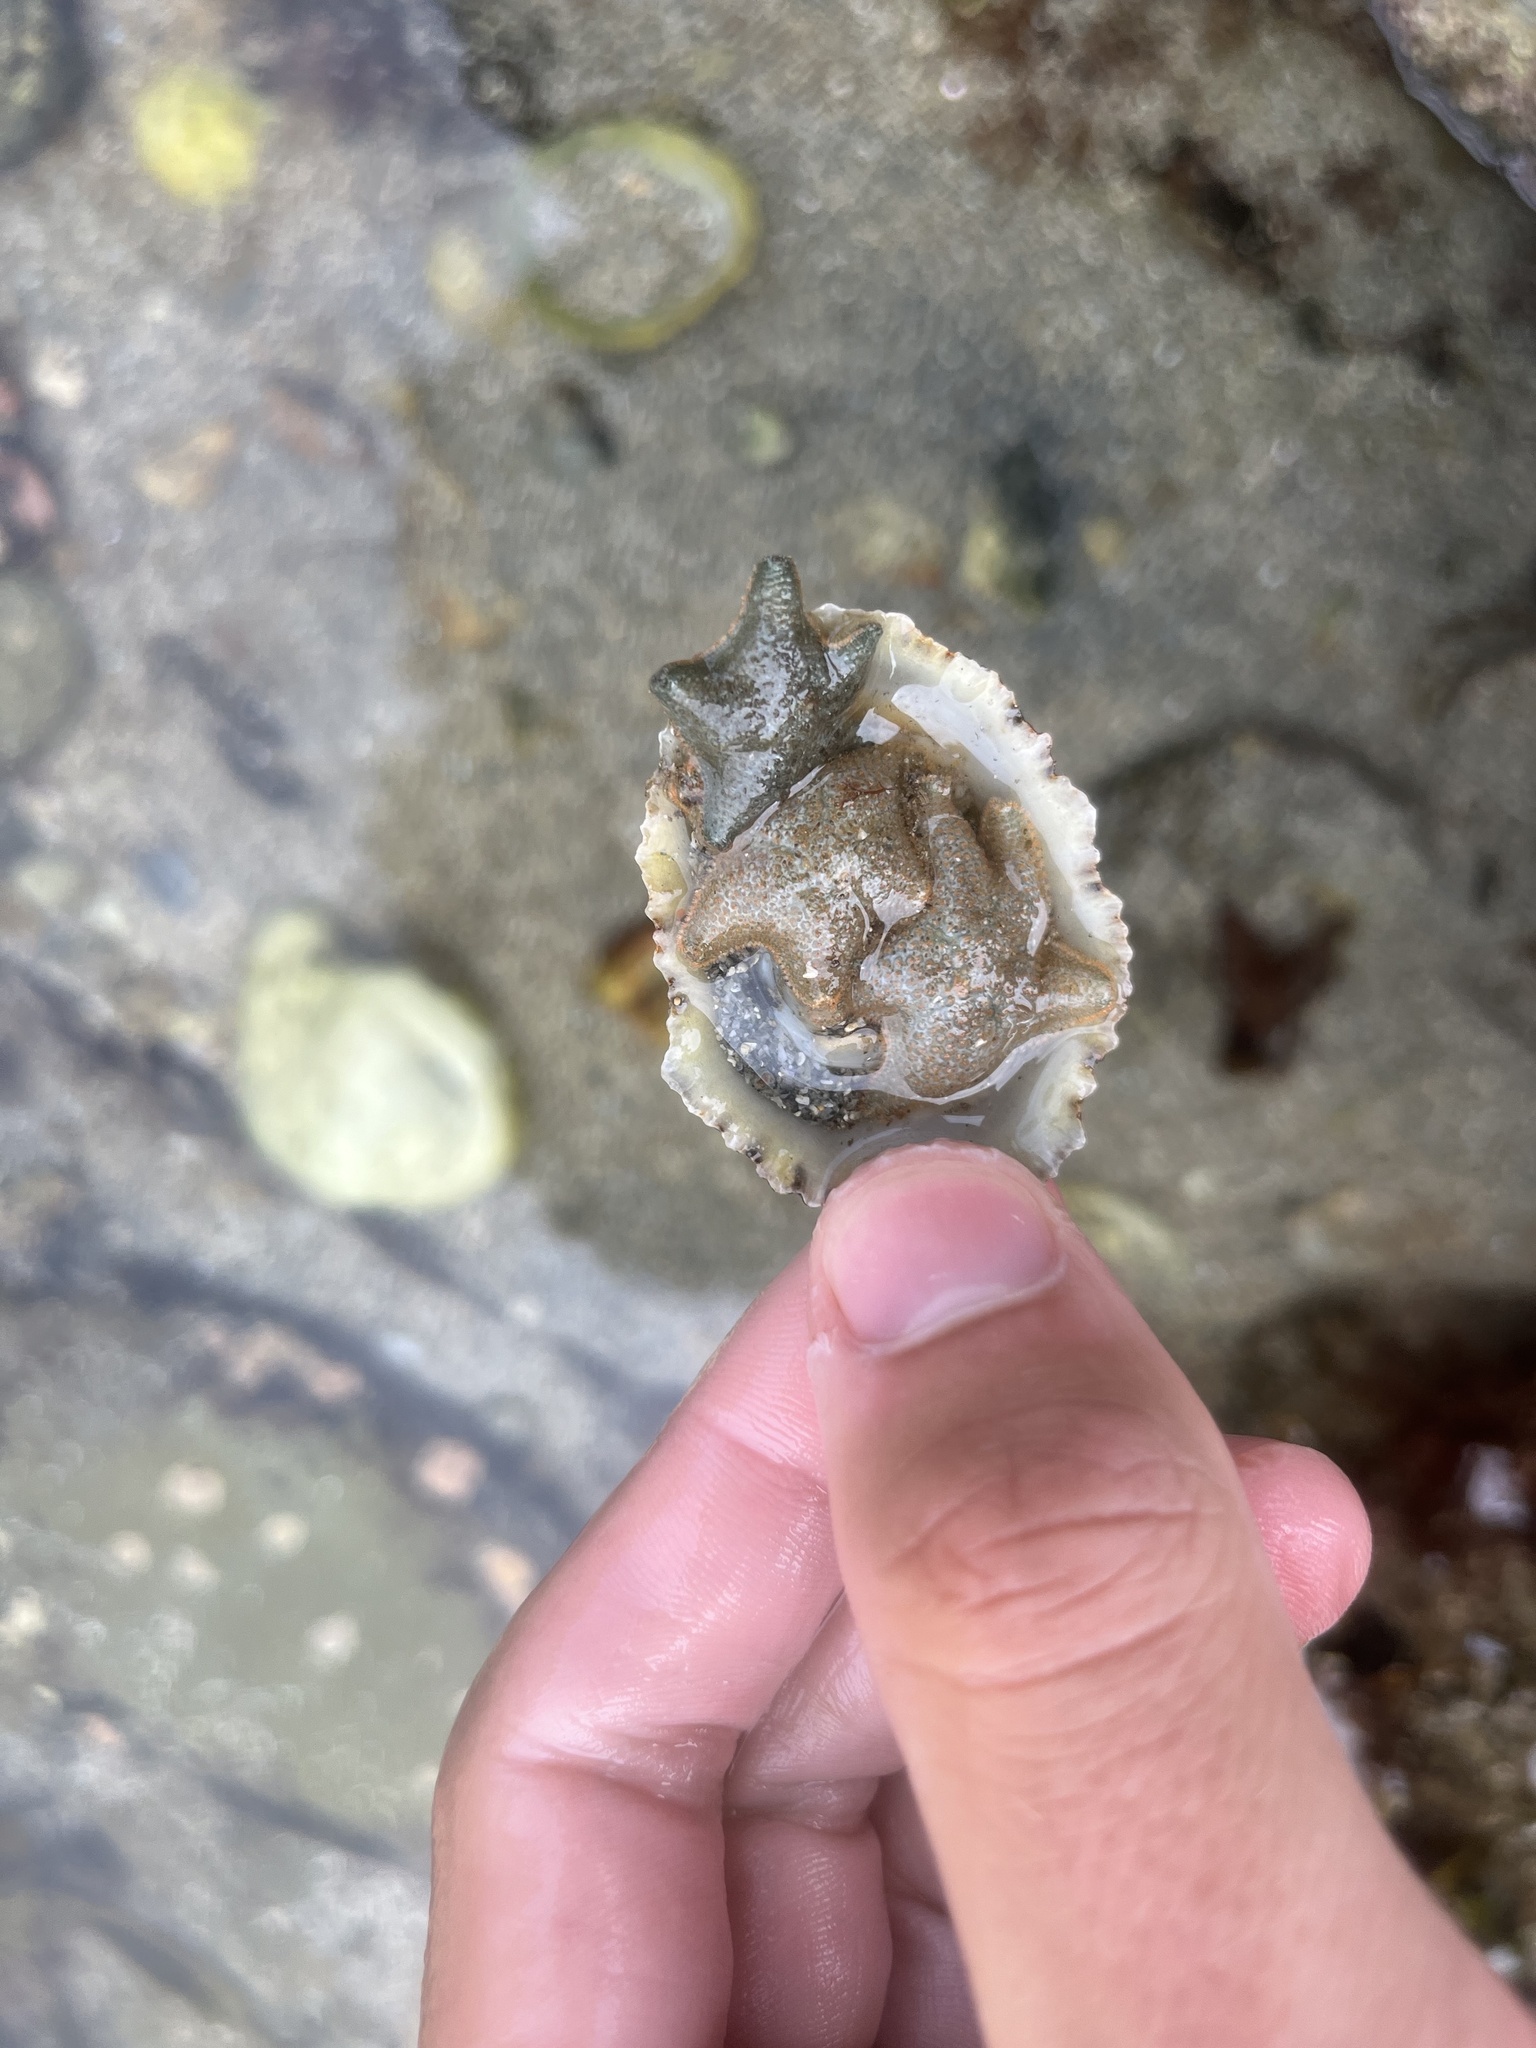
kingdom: Animalia
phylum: Echinodermata
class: Asteroidea
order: Valvatida
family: Asterinidae
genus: Asterina
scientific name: Asterina gibbosa
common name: Cushion star
